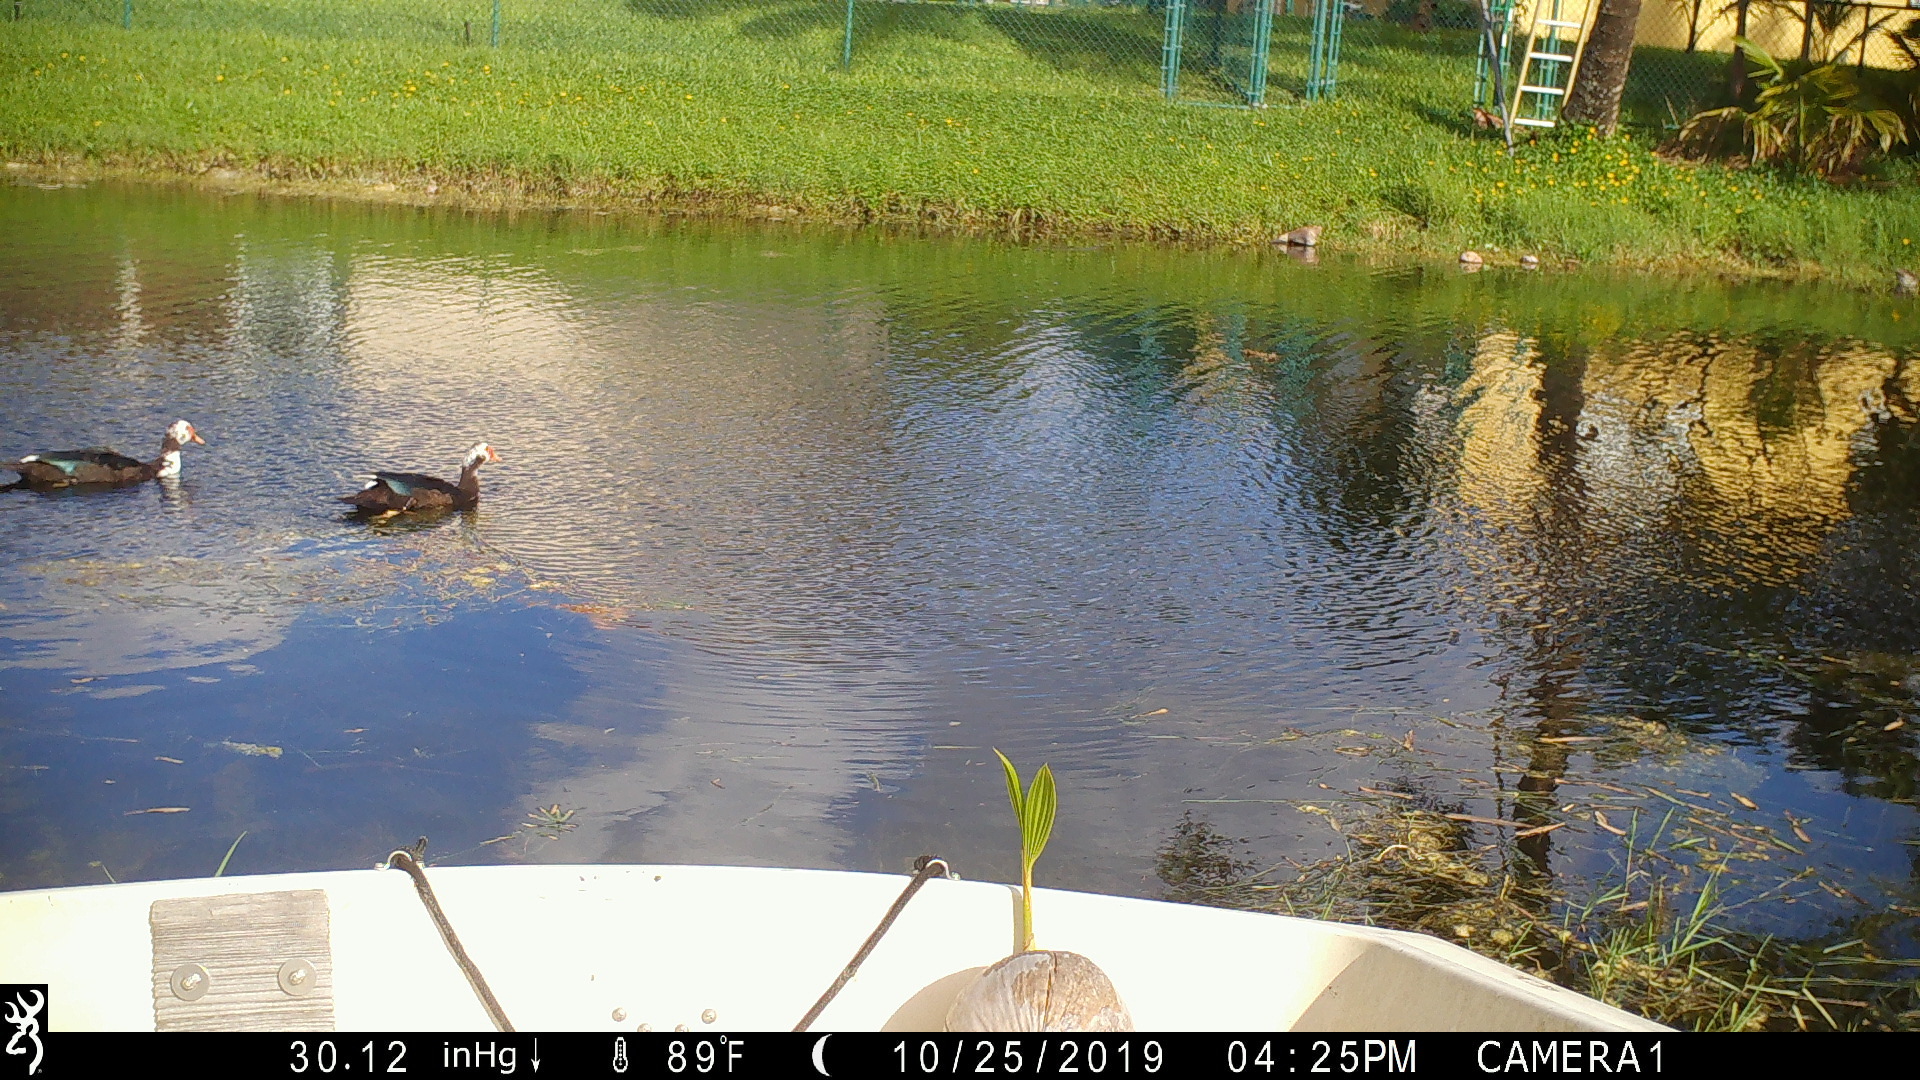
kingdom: Animalia
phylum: Chordata
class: Aves
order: Anseriformes
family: Anatidae
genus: Cairina
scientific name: Cairina moschata
